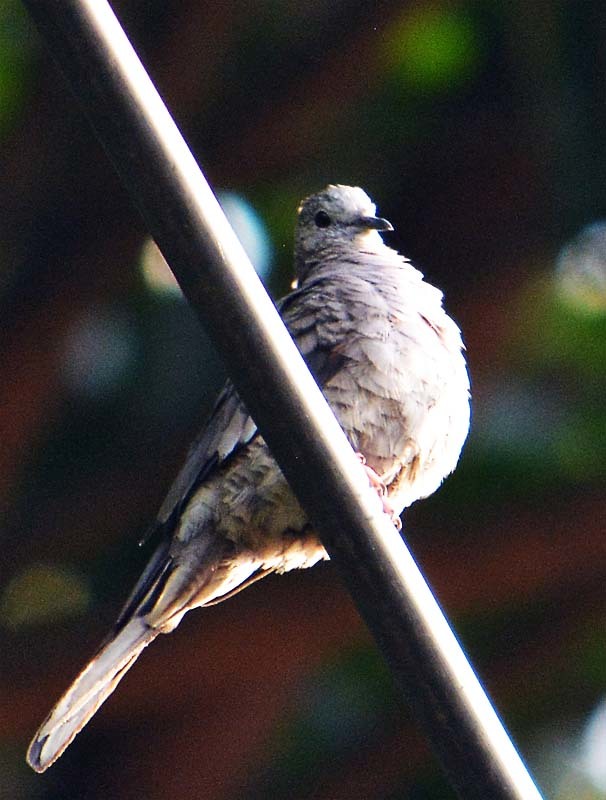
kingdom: Animalia
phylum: Chordata
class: Aves
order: Columbiformes
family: Columbidae
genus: Columbina
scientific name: Columbina inca
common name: Inca dove
